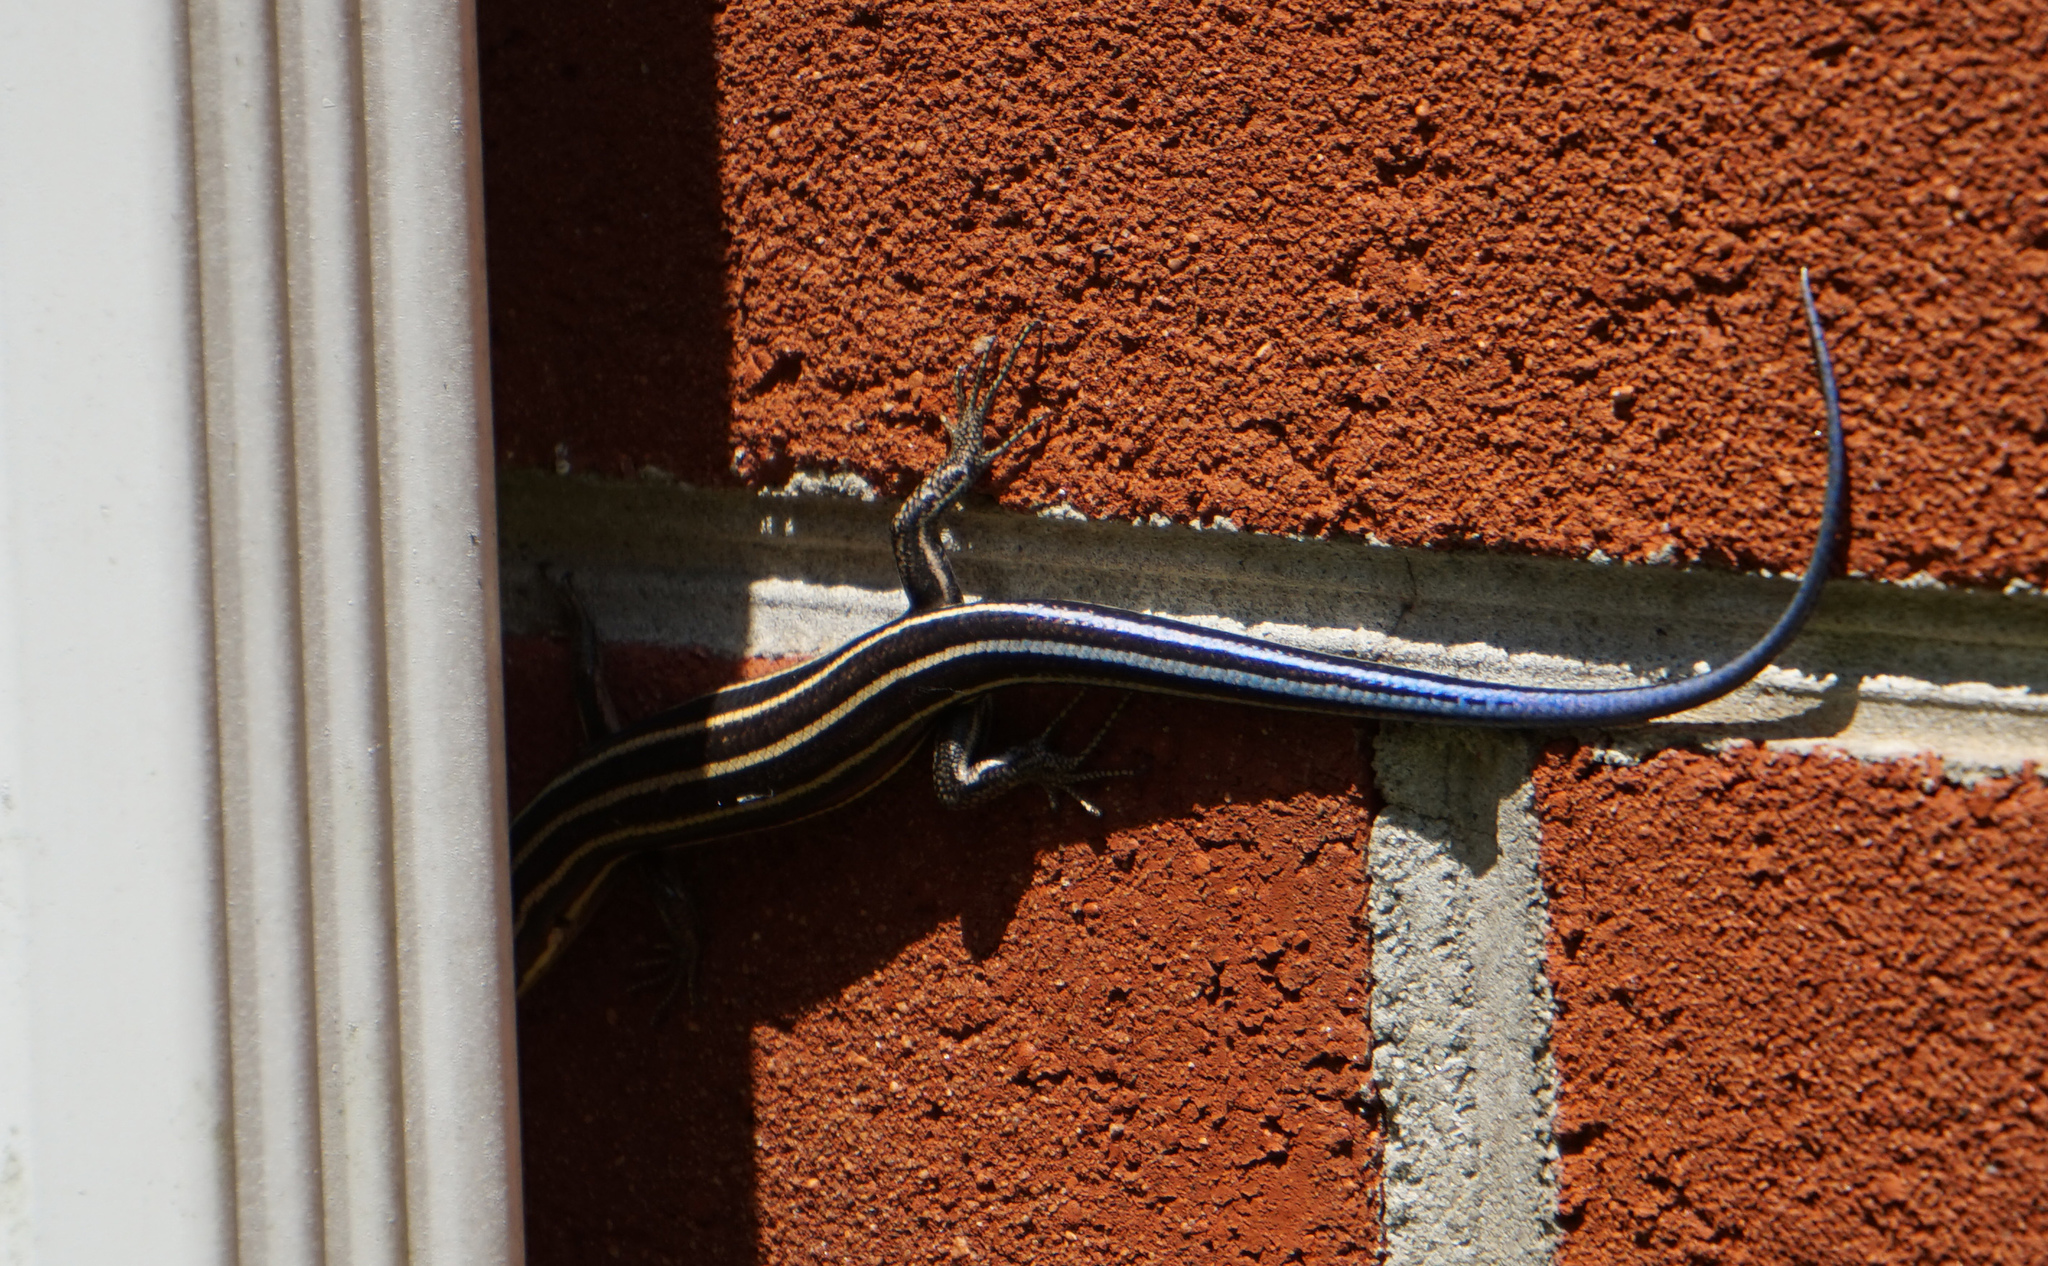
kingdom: Animalia
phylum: Chordata
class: Squamata
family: Scincidae
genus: Plestiodon
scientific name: Plestiodon fasciatus
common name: Five-lined skink
